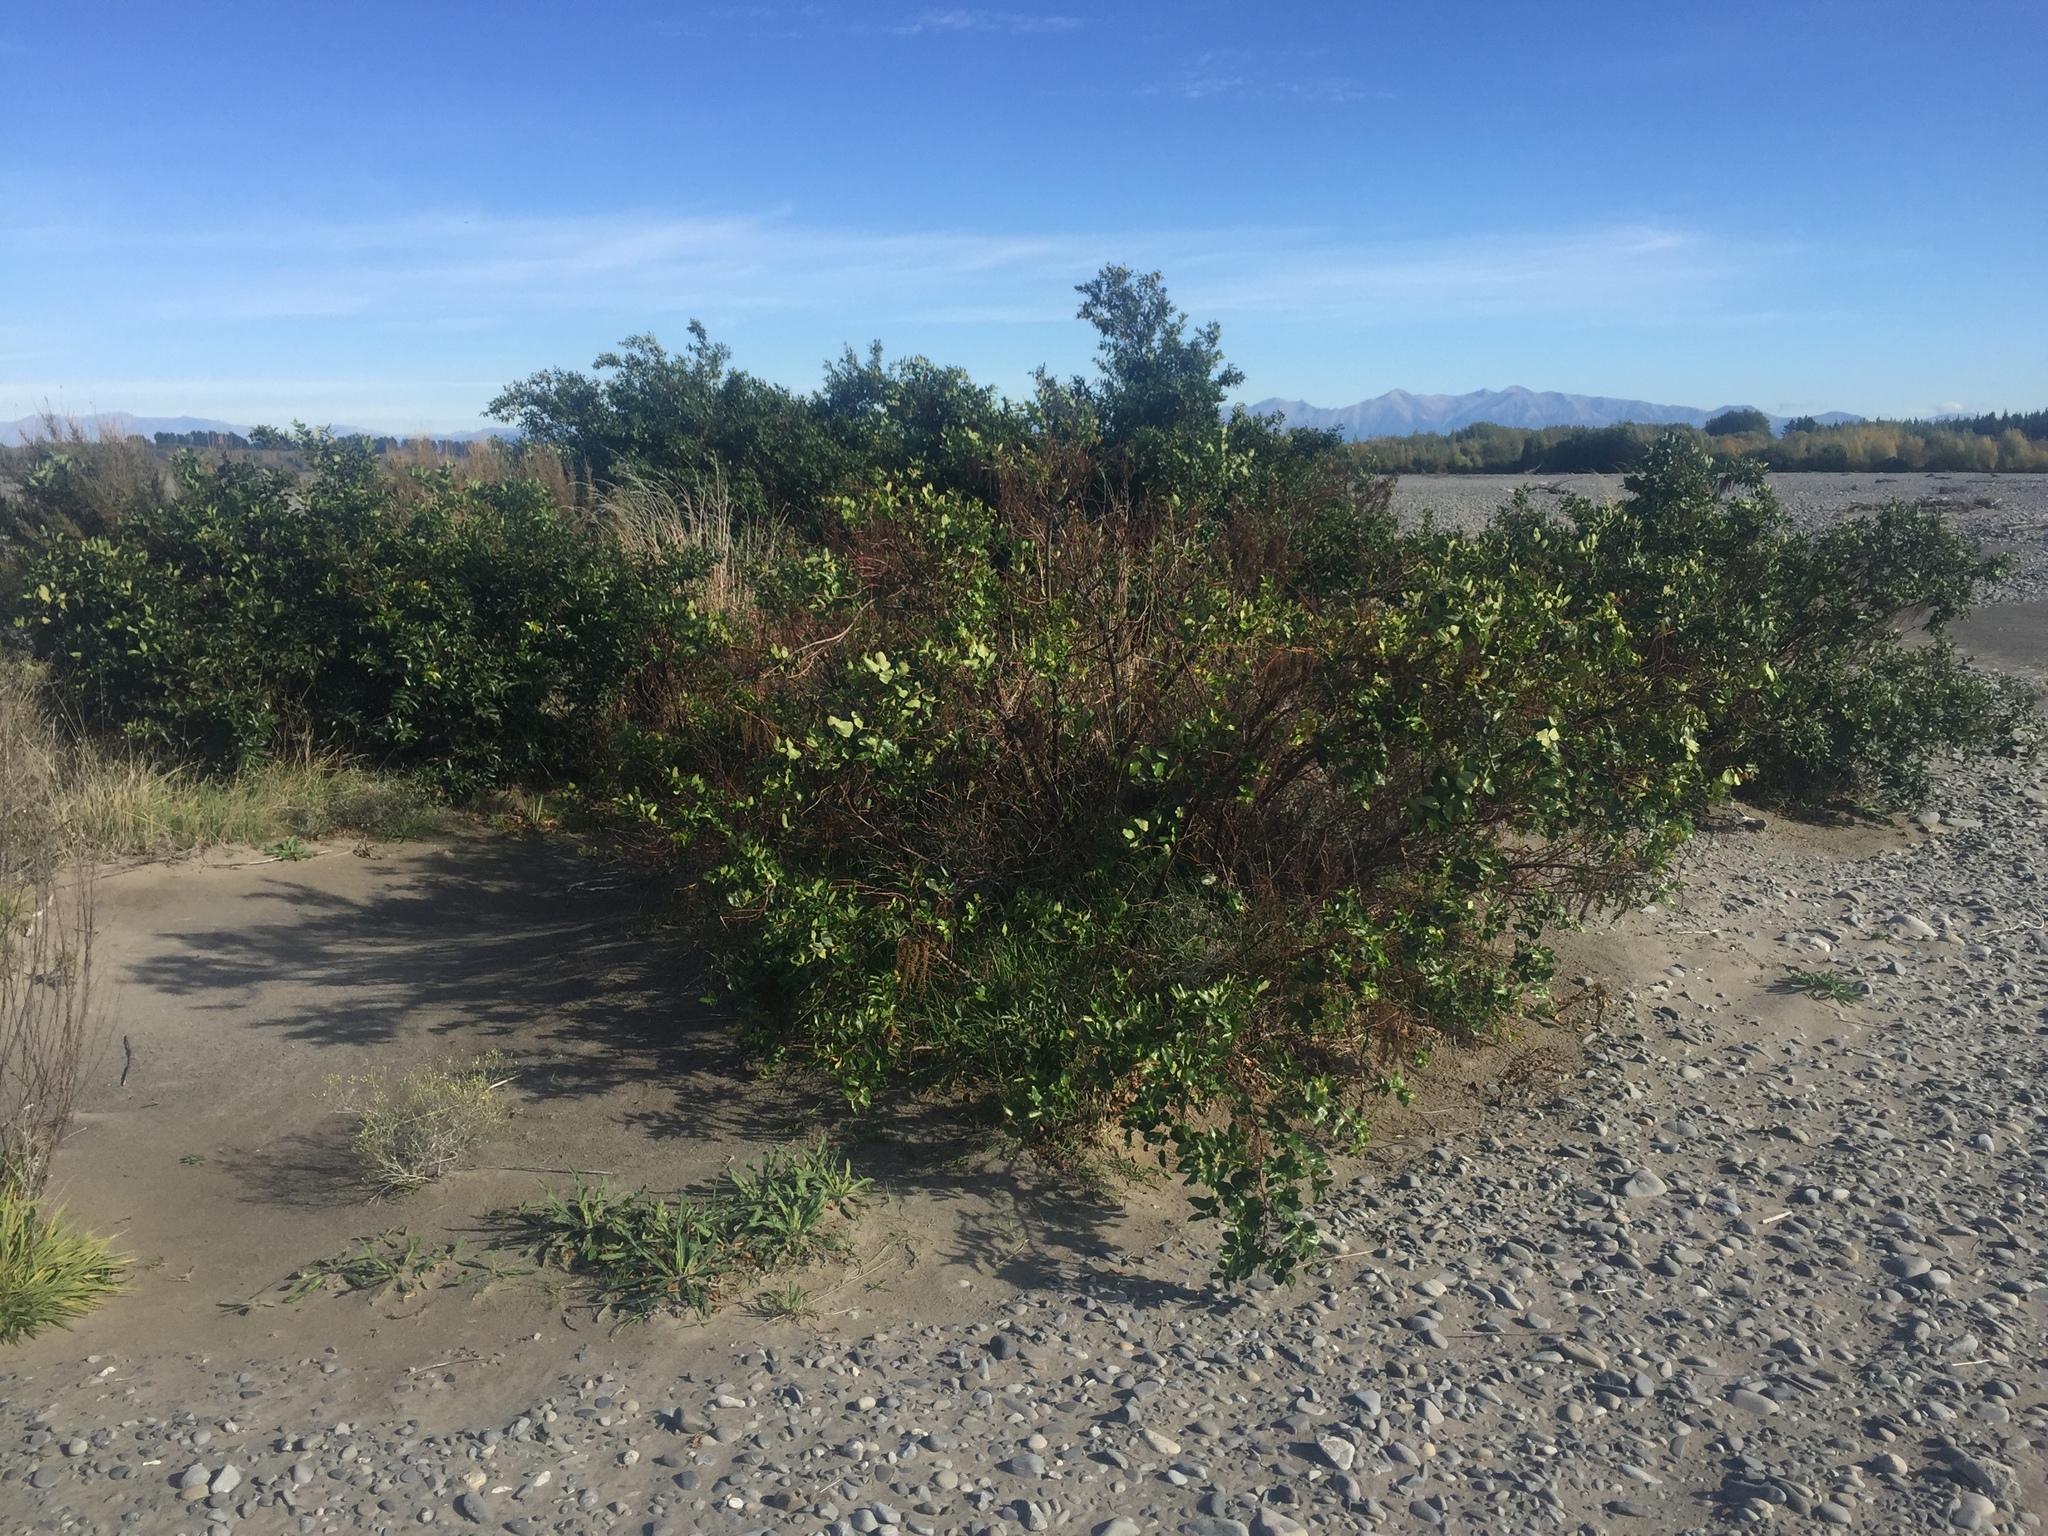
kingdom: Plantae
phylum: Tracheophyta
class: Magnoliopsida
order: Cucurbitales
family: Coriariaceae
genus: Coriaria
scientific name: Coriaria arborea
